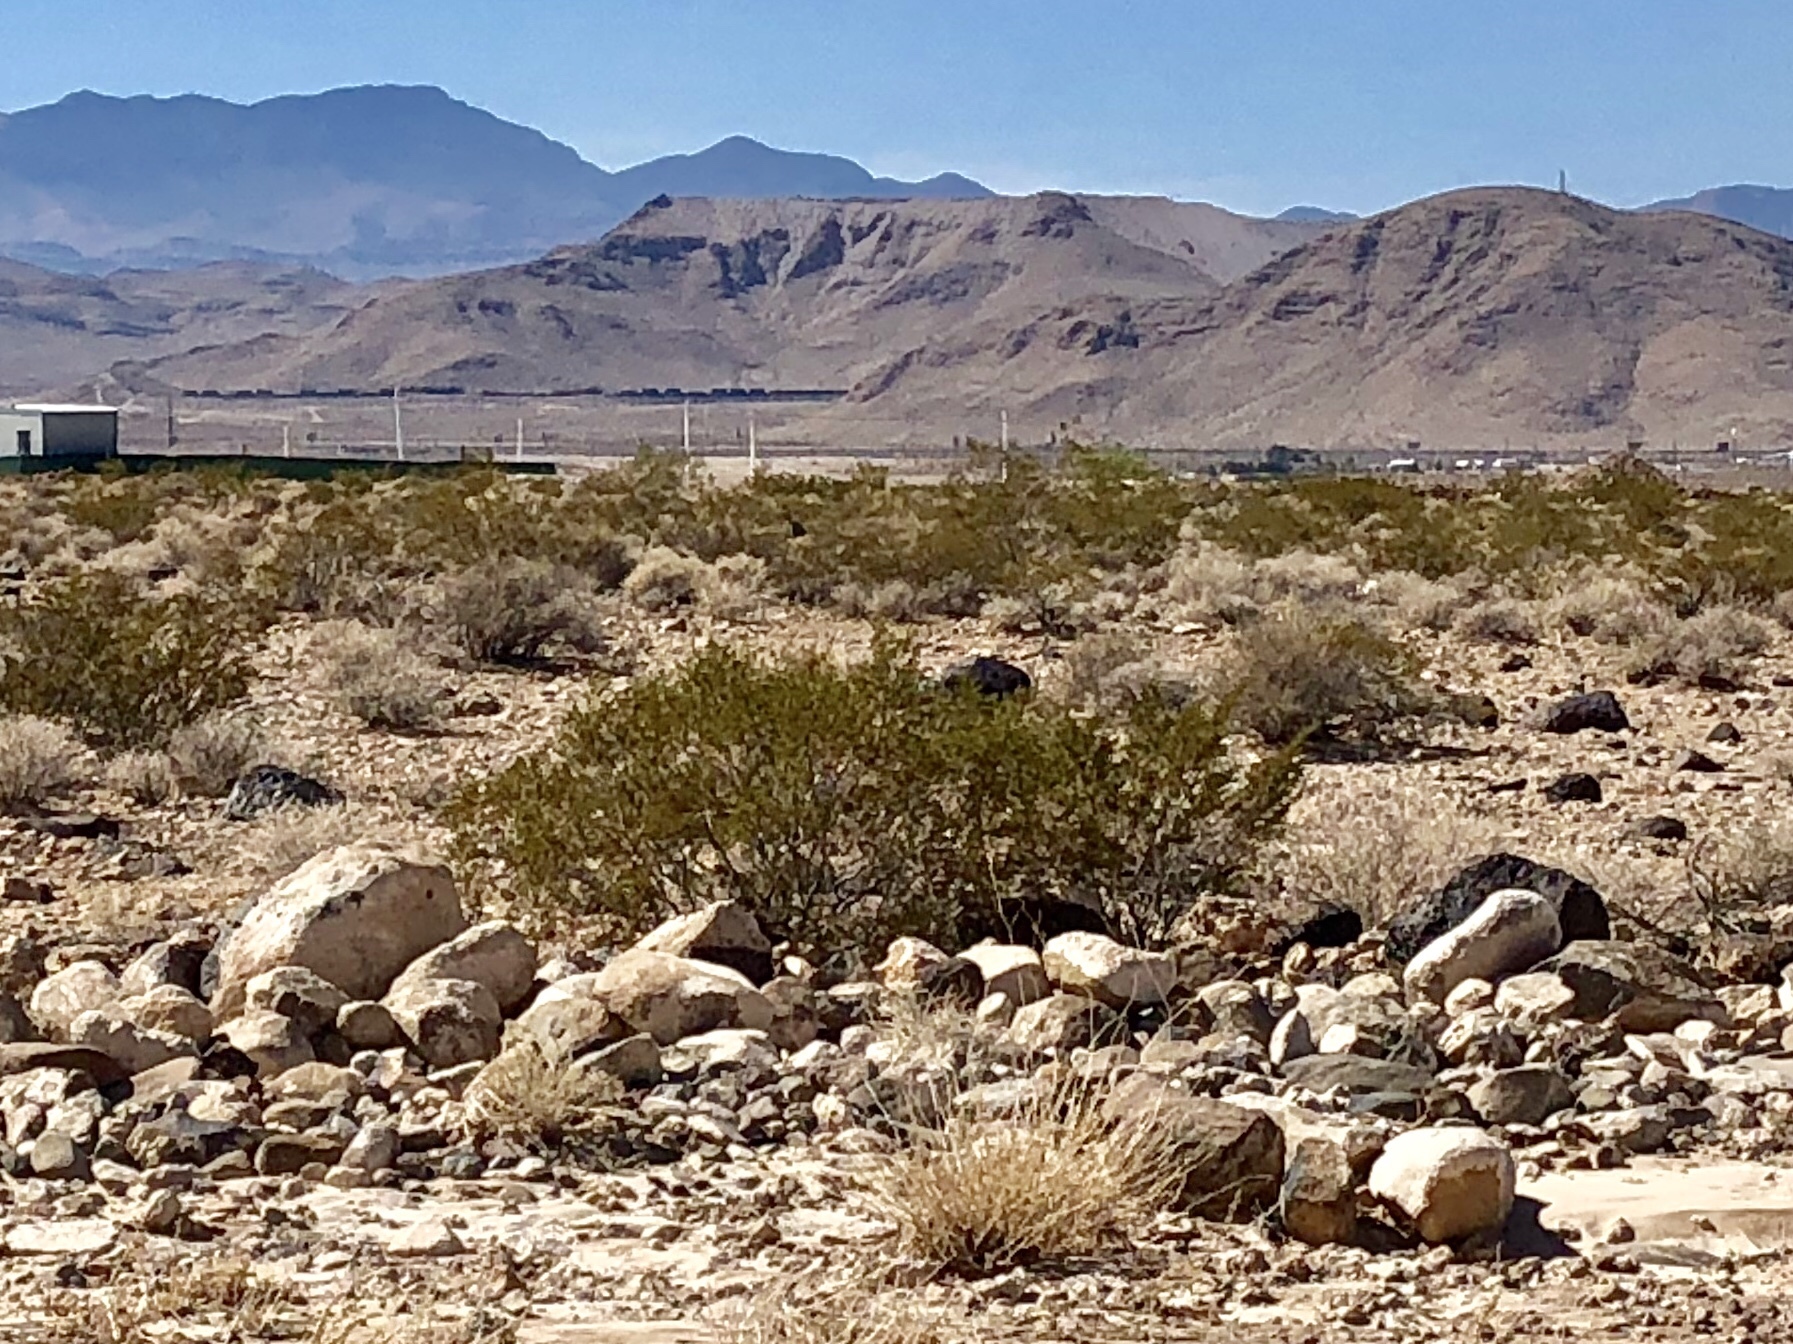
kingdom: Plantae
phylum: Tracheophyta
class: Magnoliopsida
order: Zygophyllales
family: Zygophyllaceae
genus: Larrea
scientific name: Larrea tridentata
